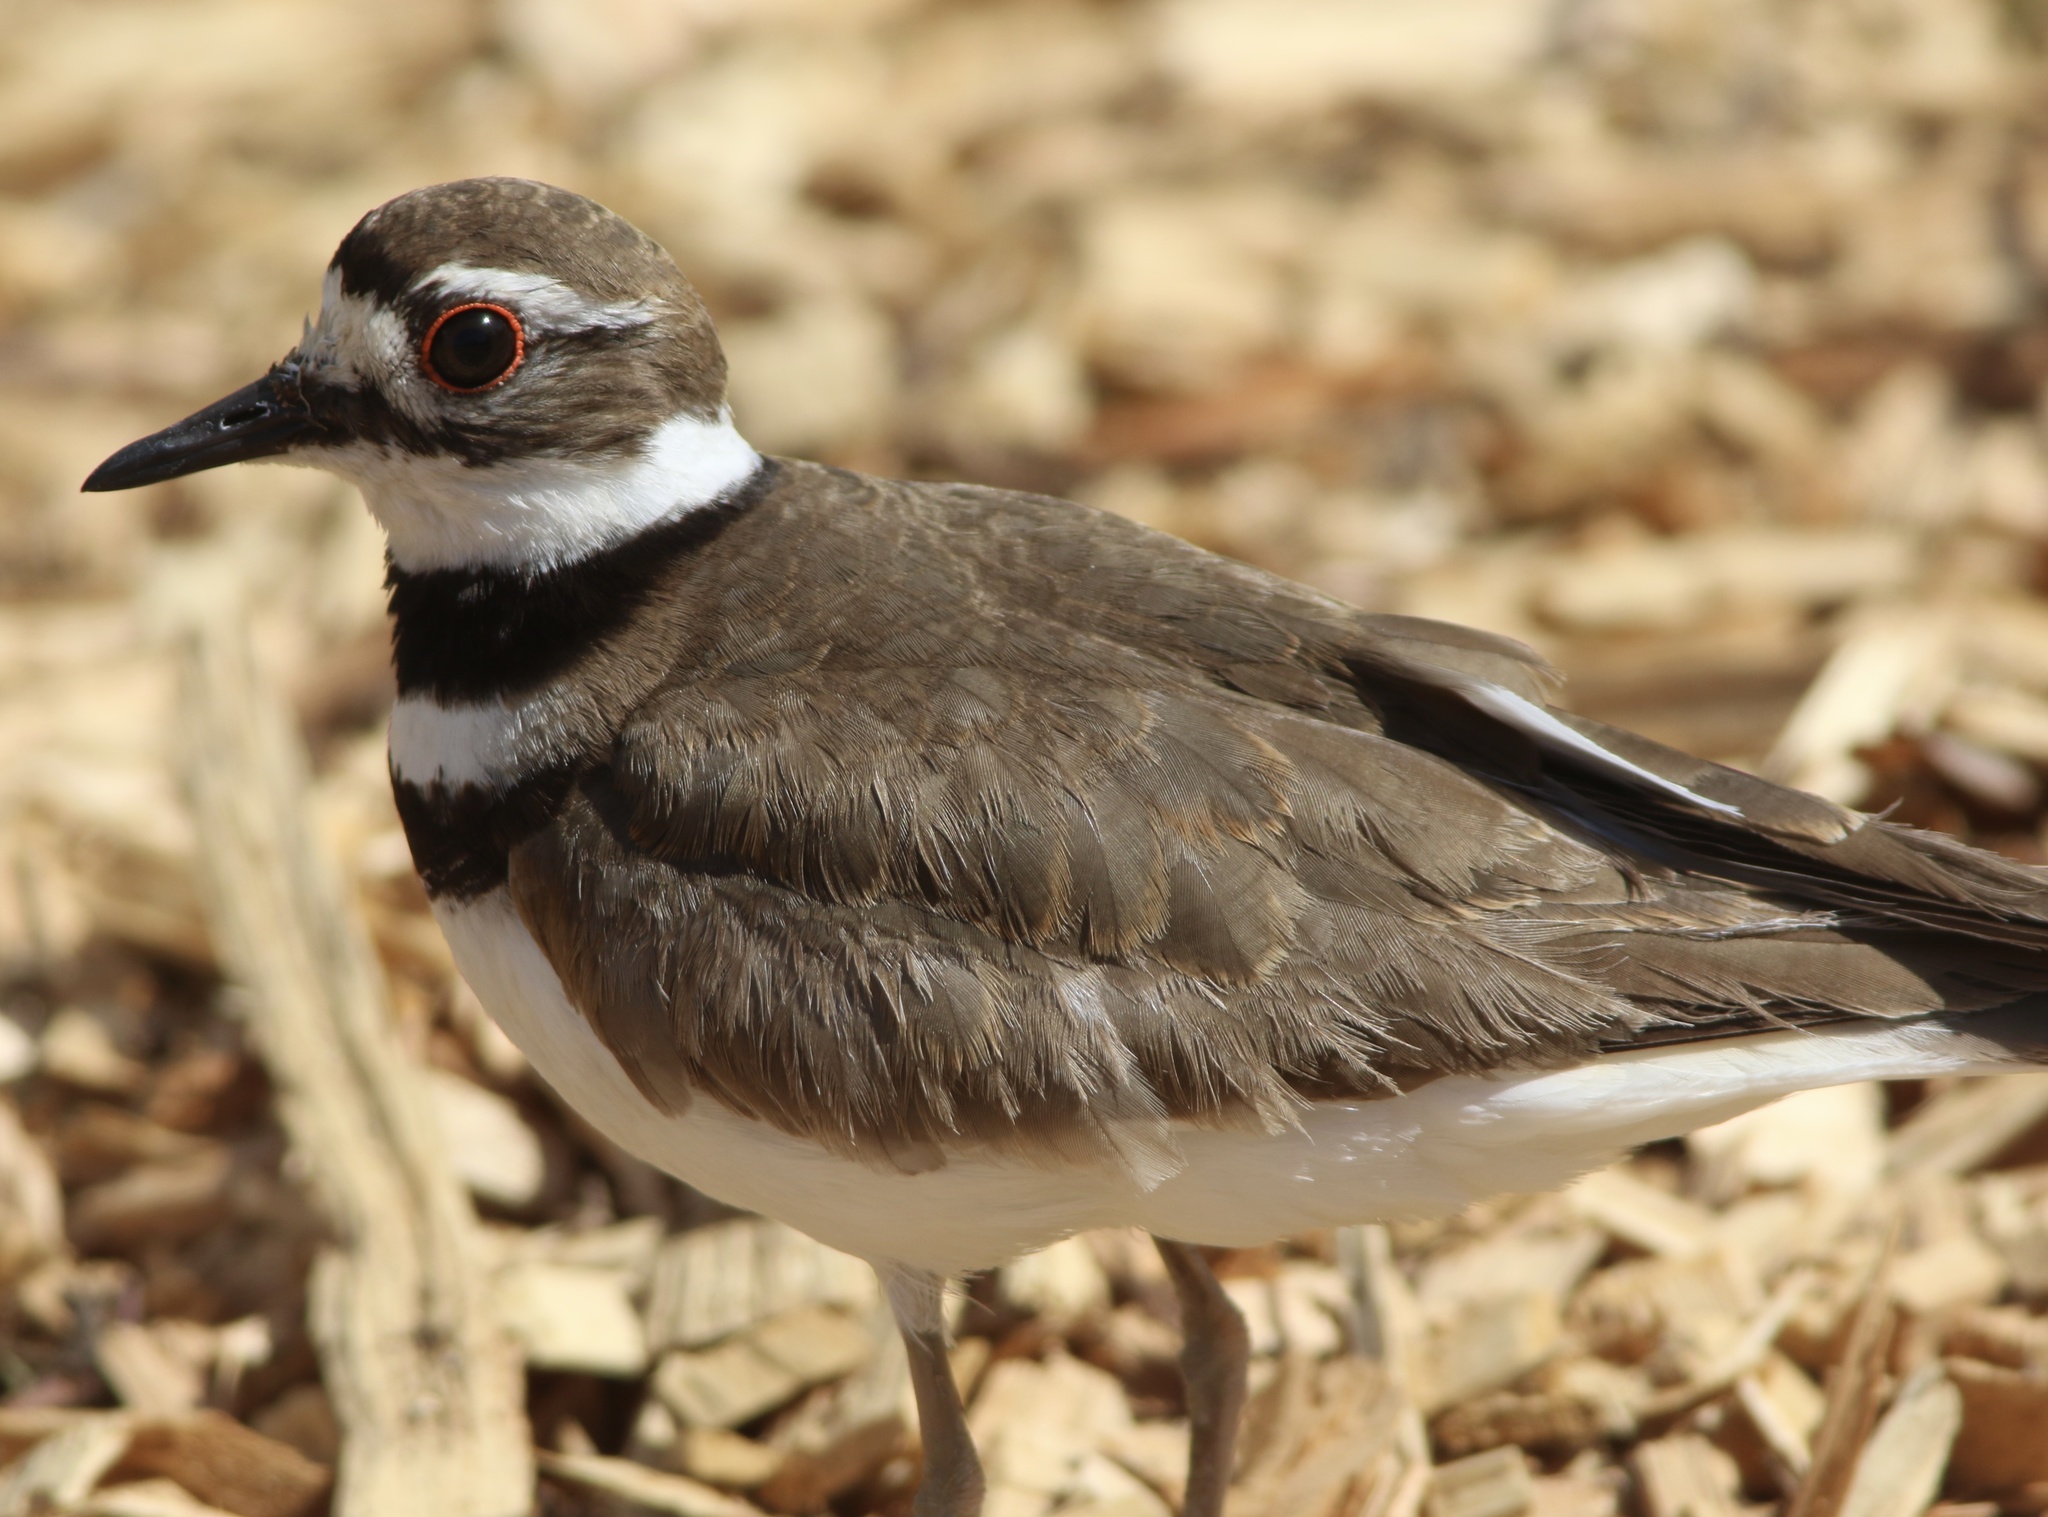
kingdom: Animalia
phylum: Chordata
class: Aves
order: Charadriiformes
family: Charadriidae
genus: Charadrius
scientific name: Charadrius vociferus
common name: Killdeer
